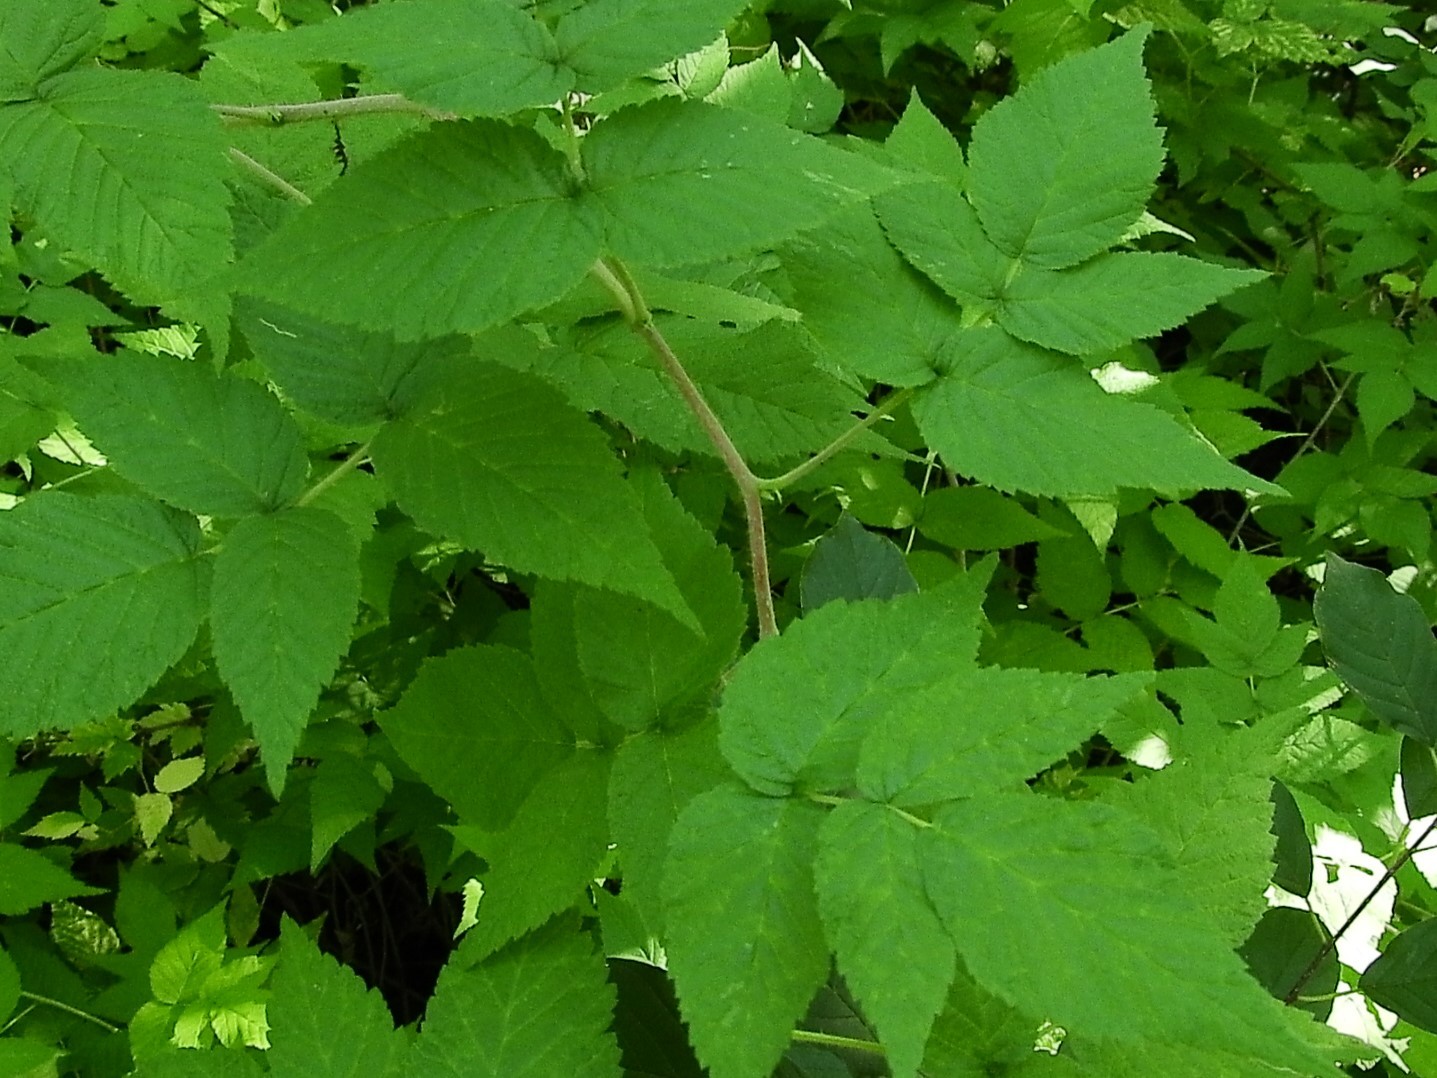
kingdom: Plantae
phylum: Tracheophyta
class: Magnoliopsida
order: Rosales
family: Rosaceae
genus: Rubus
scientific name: Rubus idaeus
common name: Raspberry
